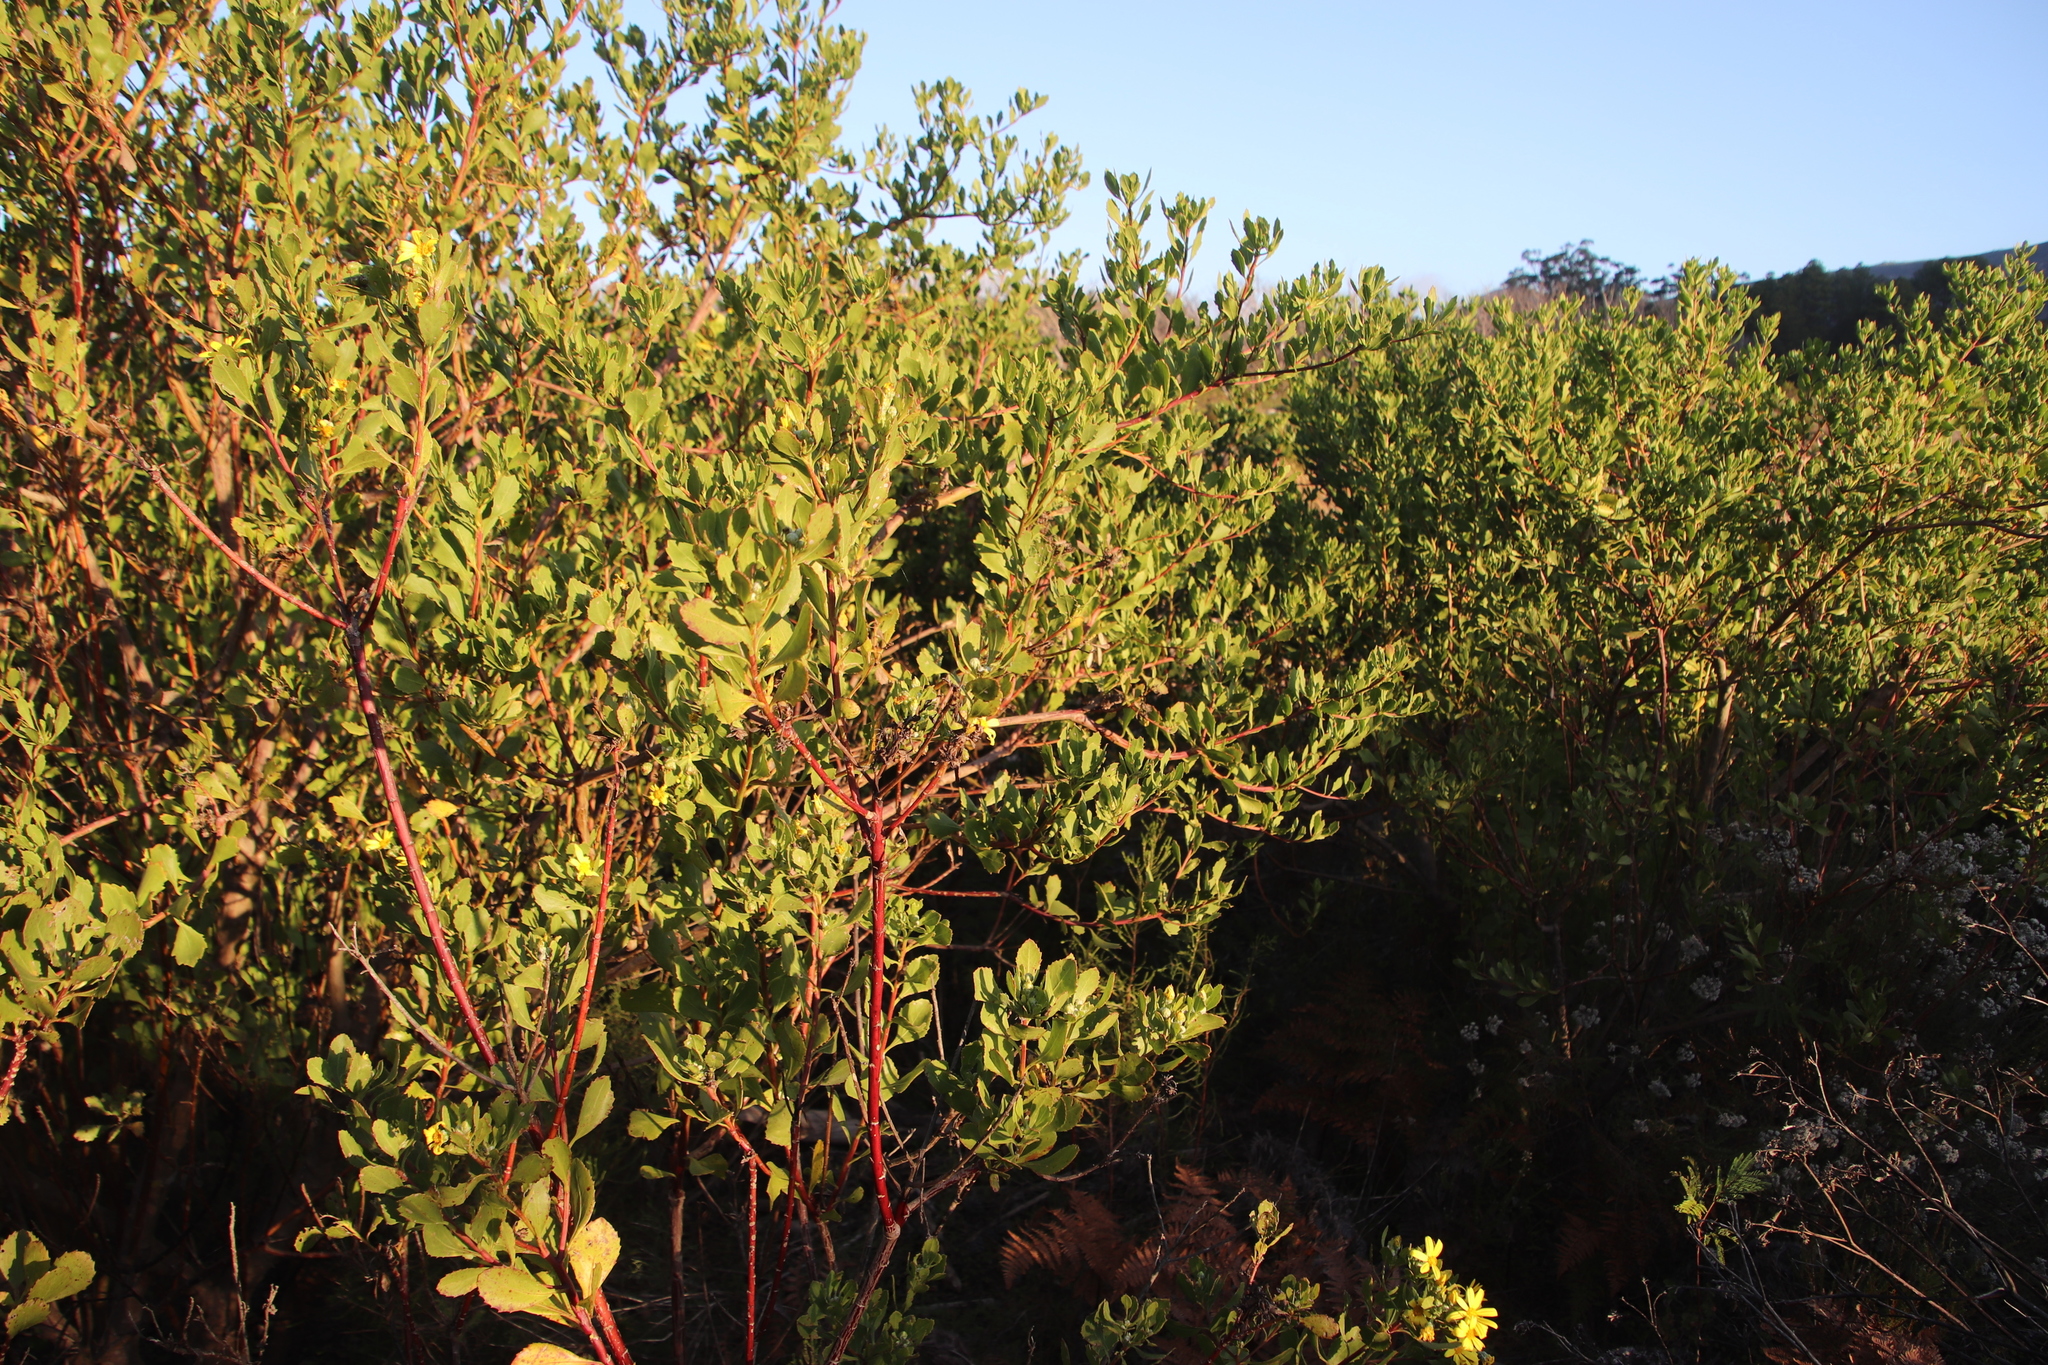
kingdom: Plantae
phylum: Tracheophyta
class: Magnoliopsida
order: Asterales
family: Asteraceae
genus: Osteospermum
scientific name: Osteospermum moniliferum
